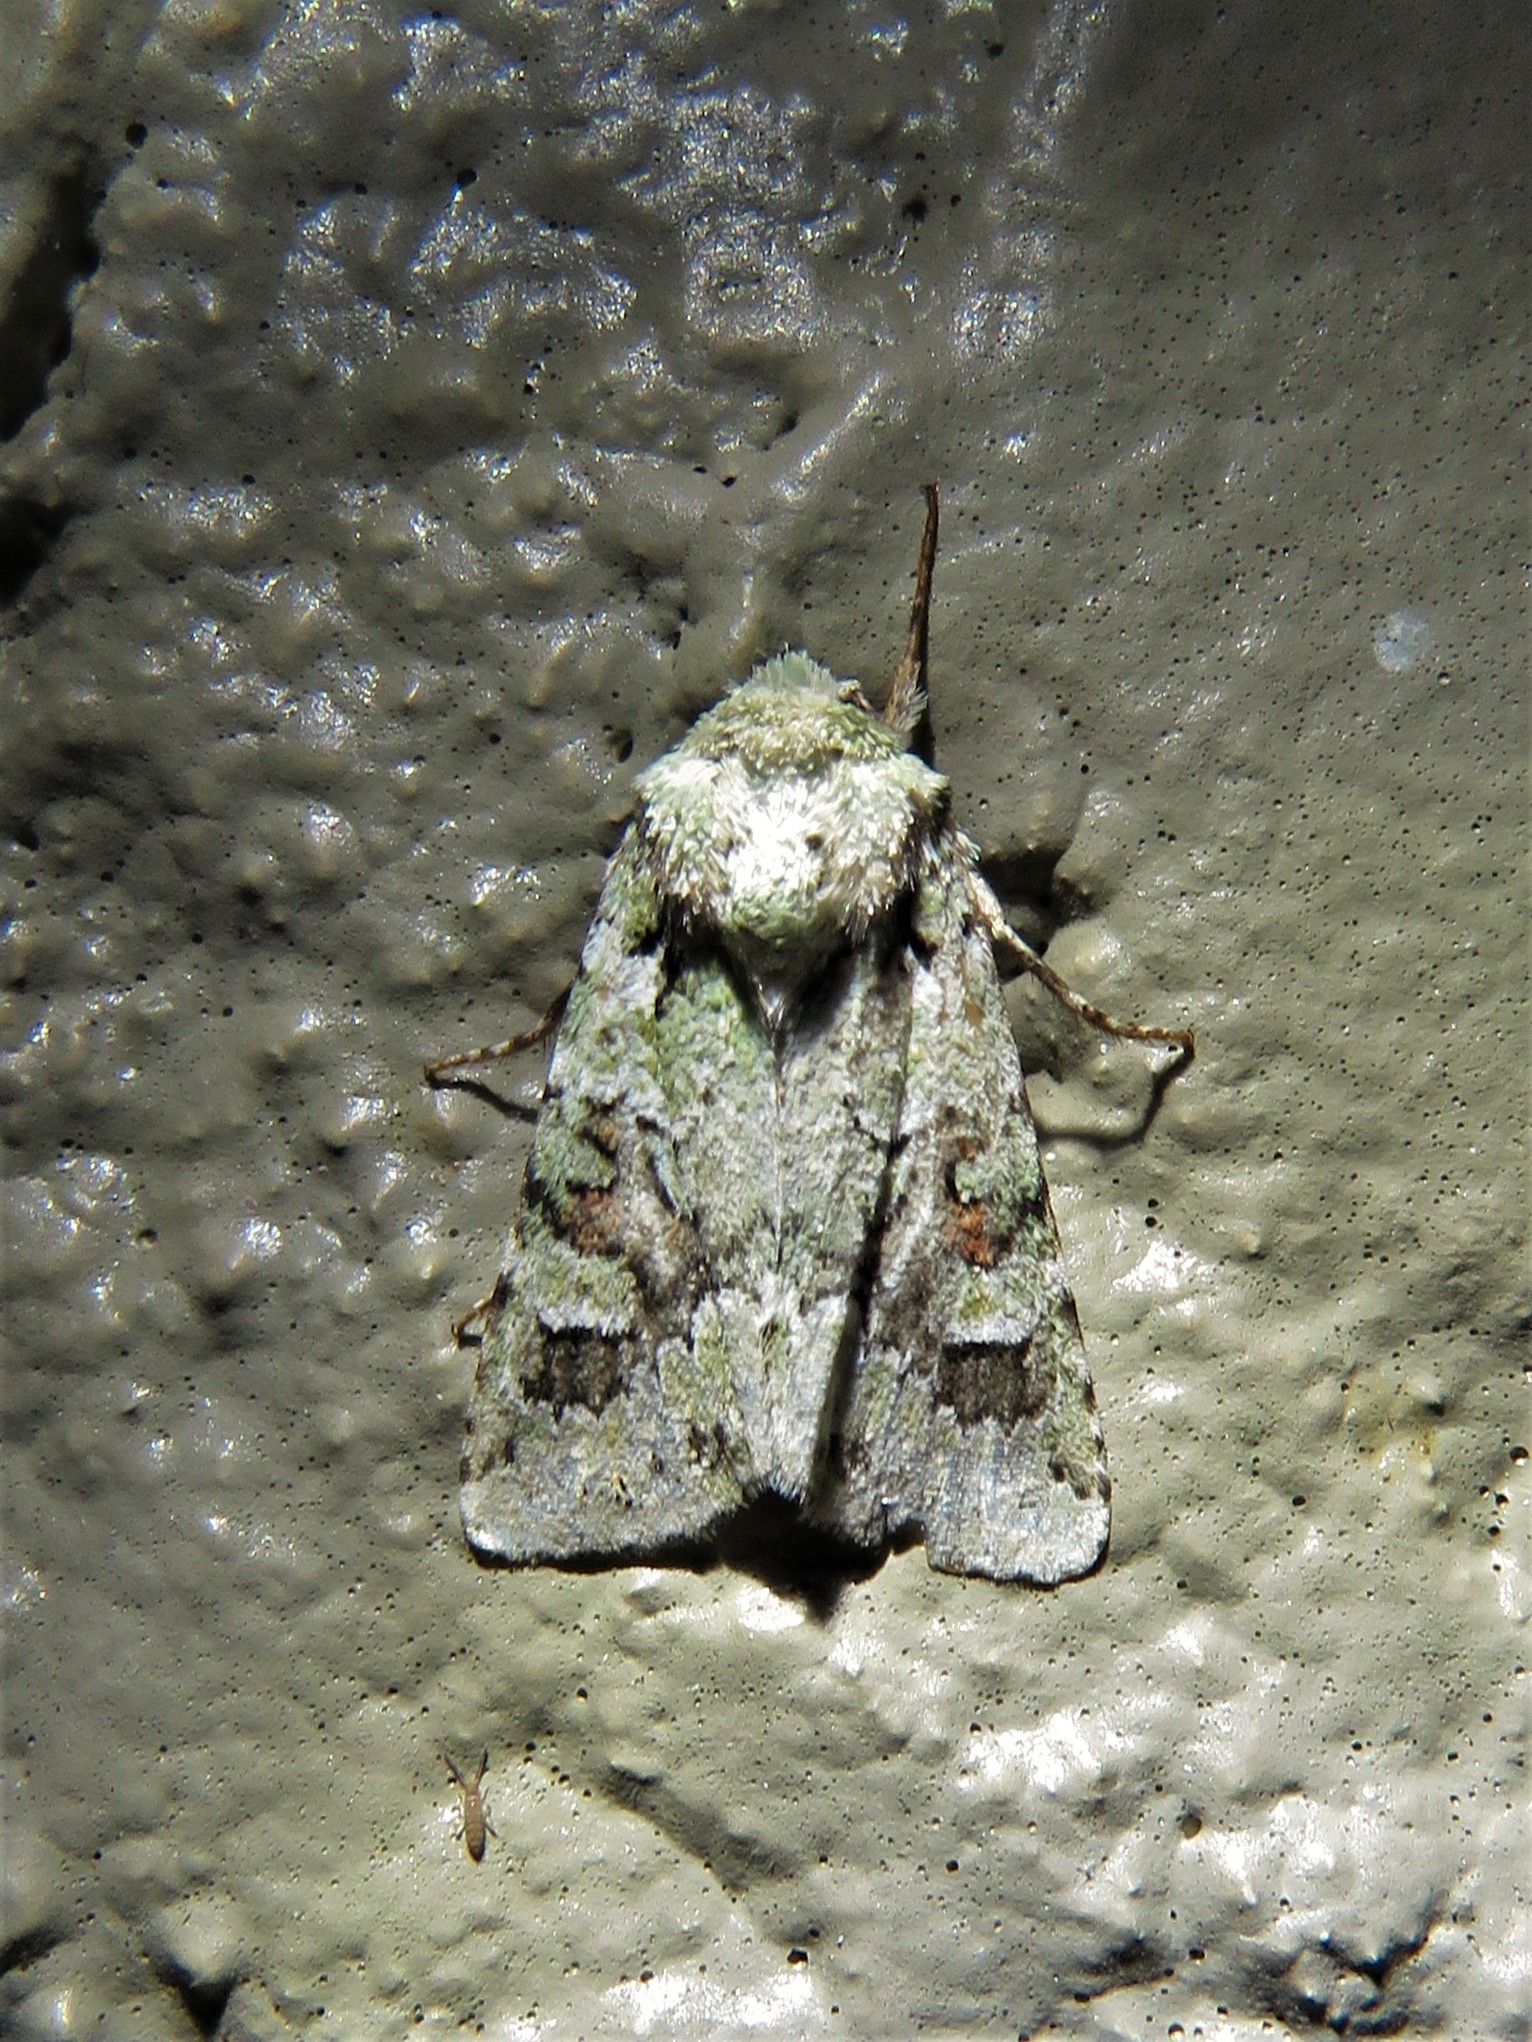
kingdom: Animalia
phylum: Arthropoda
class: Insecta
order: Lepidoptera
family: Noctuidae
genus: Lacinipolia
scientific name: Lacinipolia laudabilis
